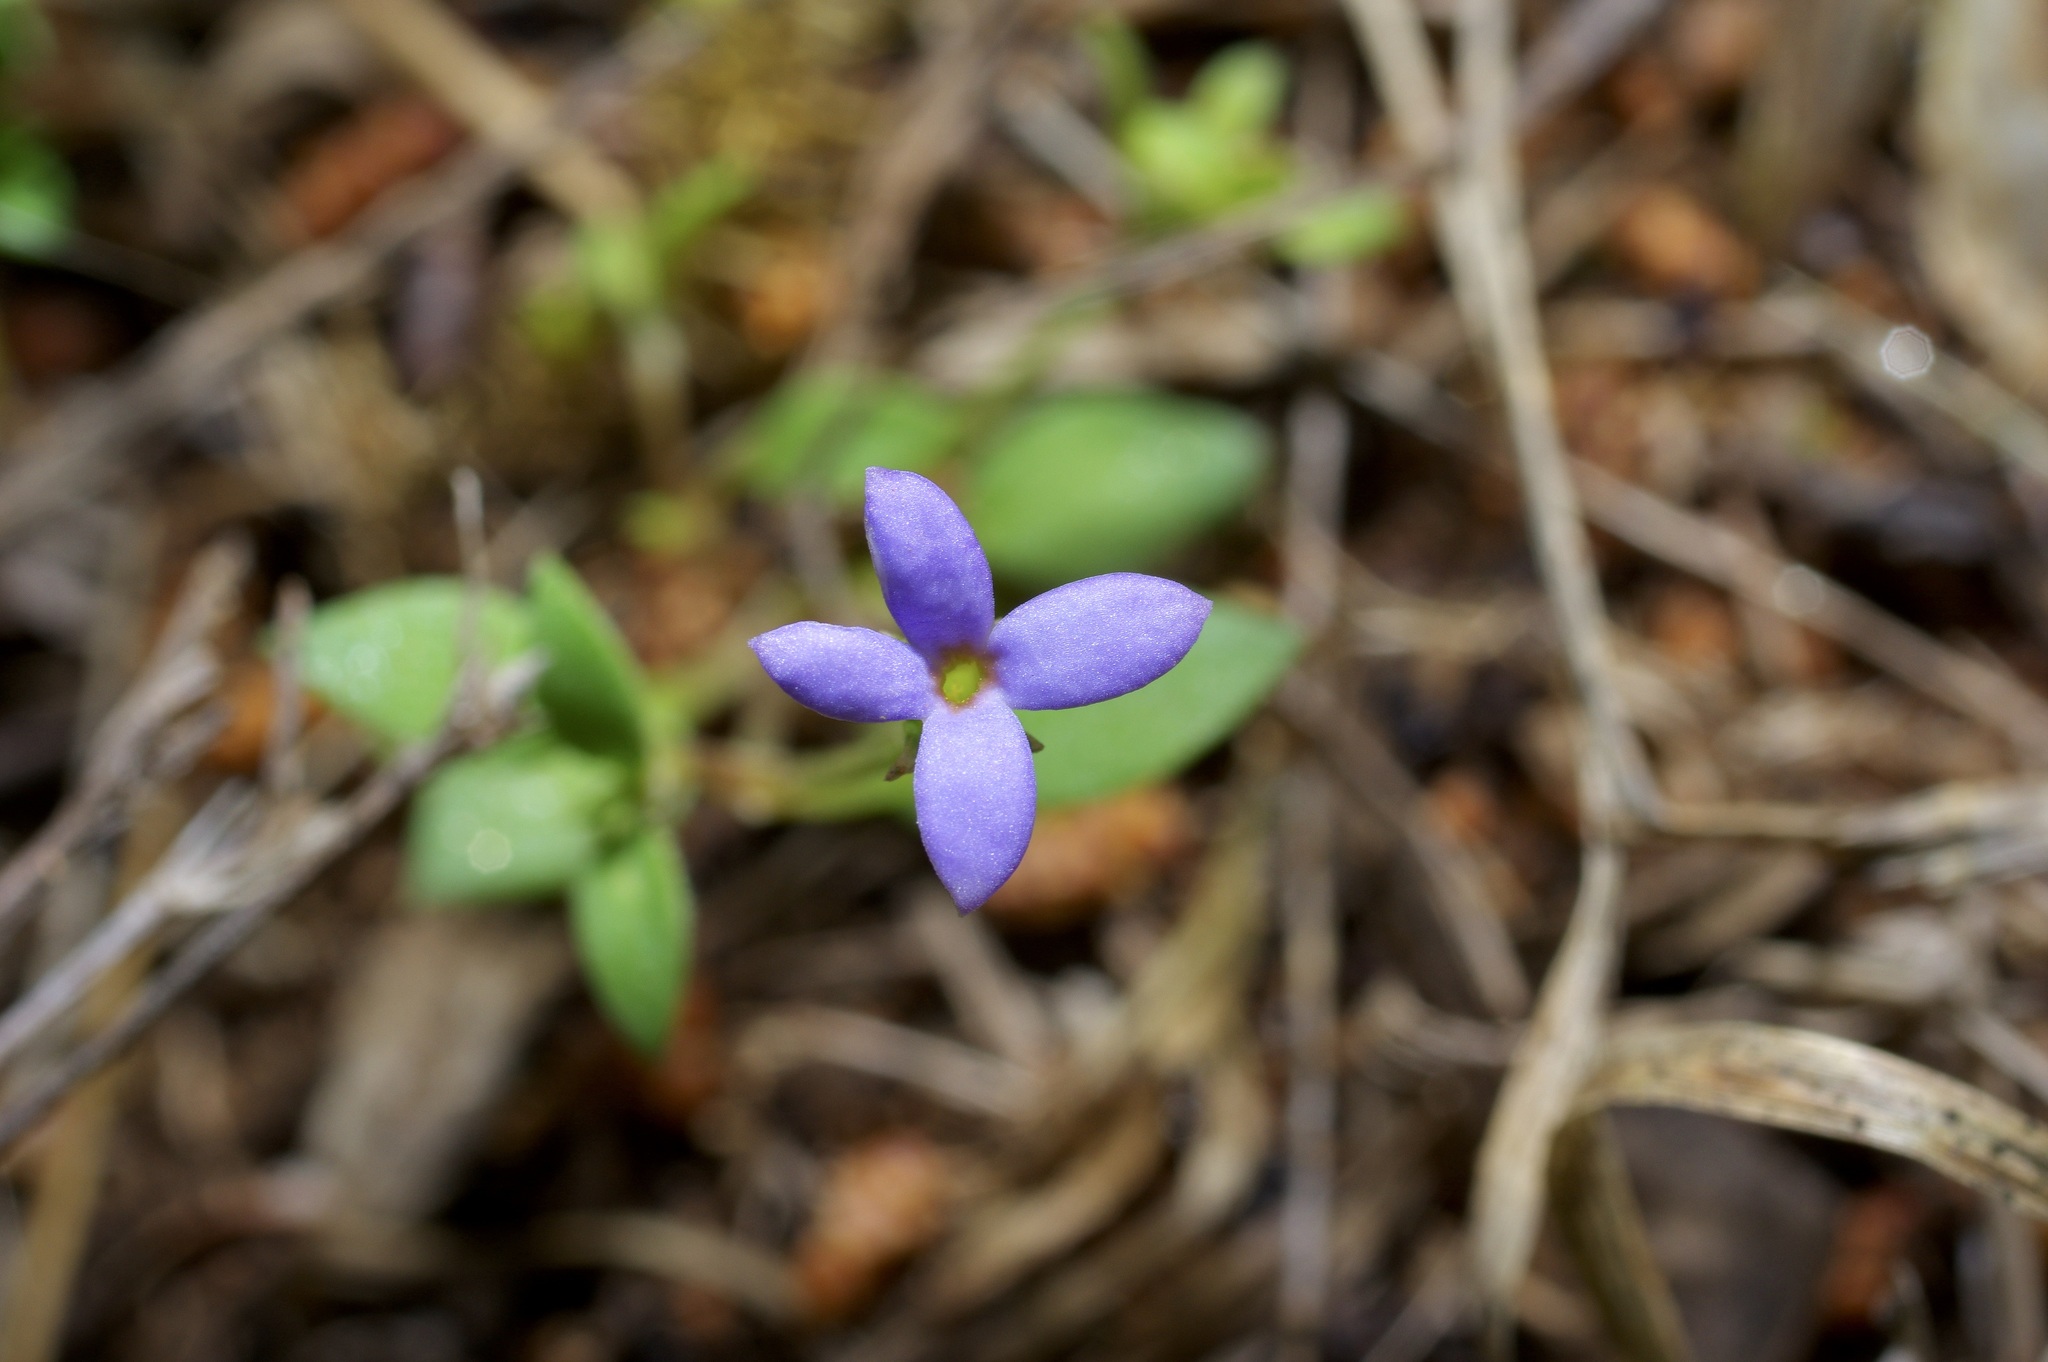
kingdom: Plantae
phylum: Tracheophyta
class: Magnoliopsida
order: Gentianales
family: Rubiaceae
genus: Houstonia
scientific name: Houstonia pusilla
